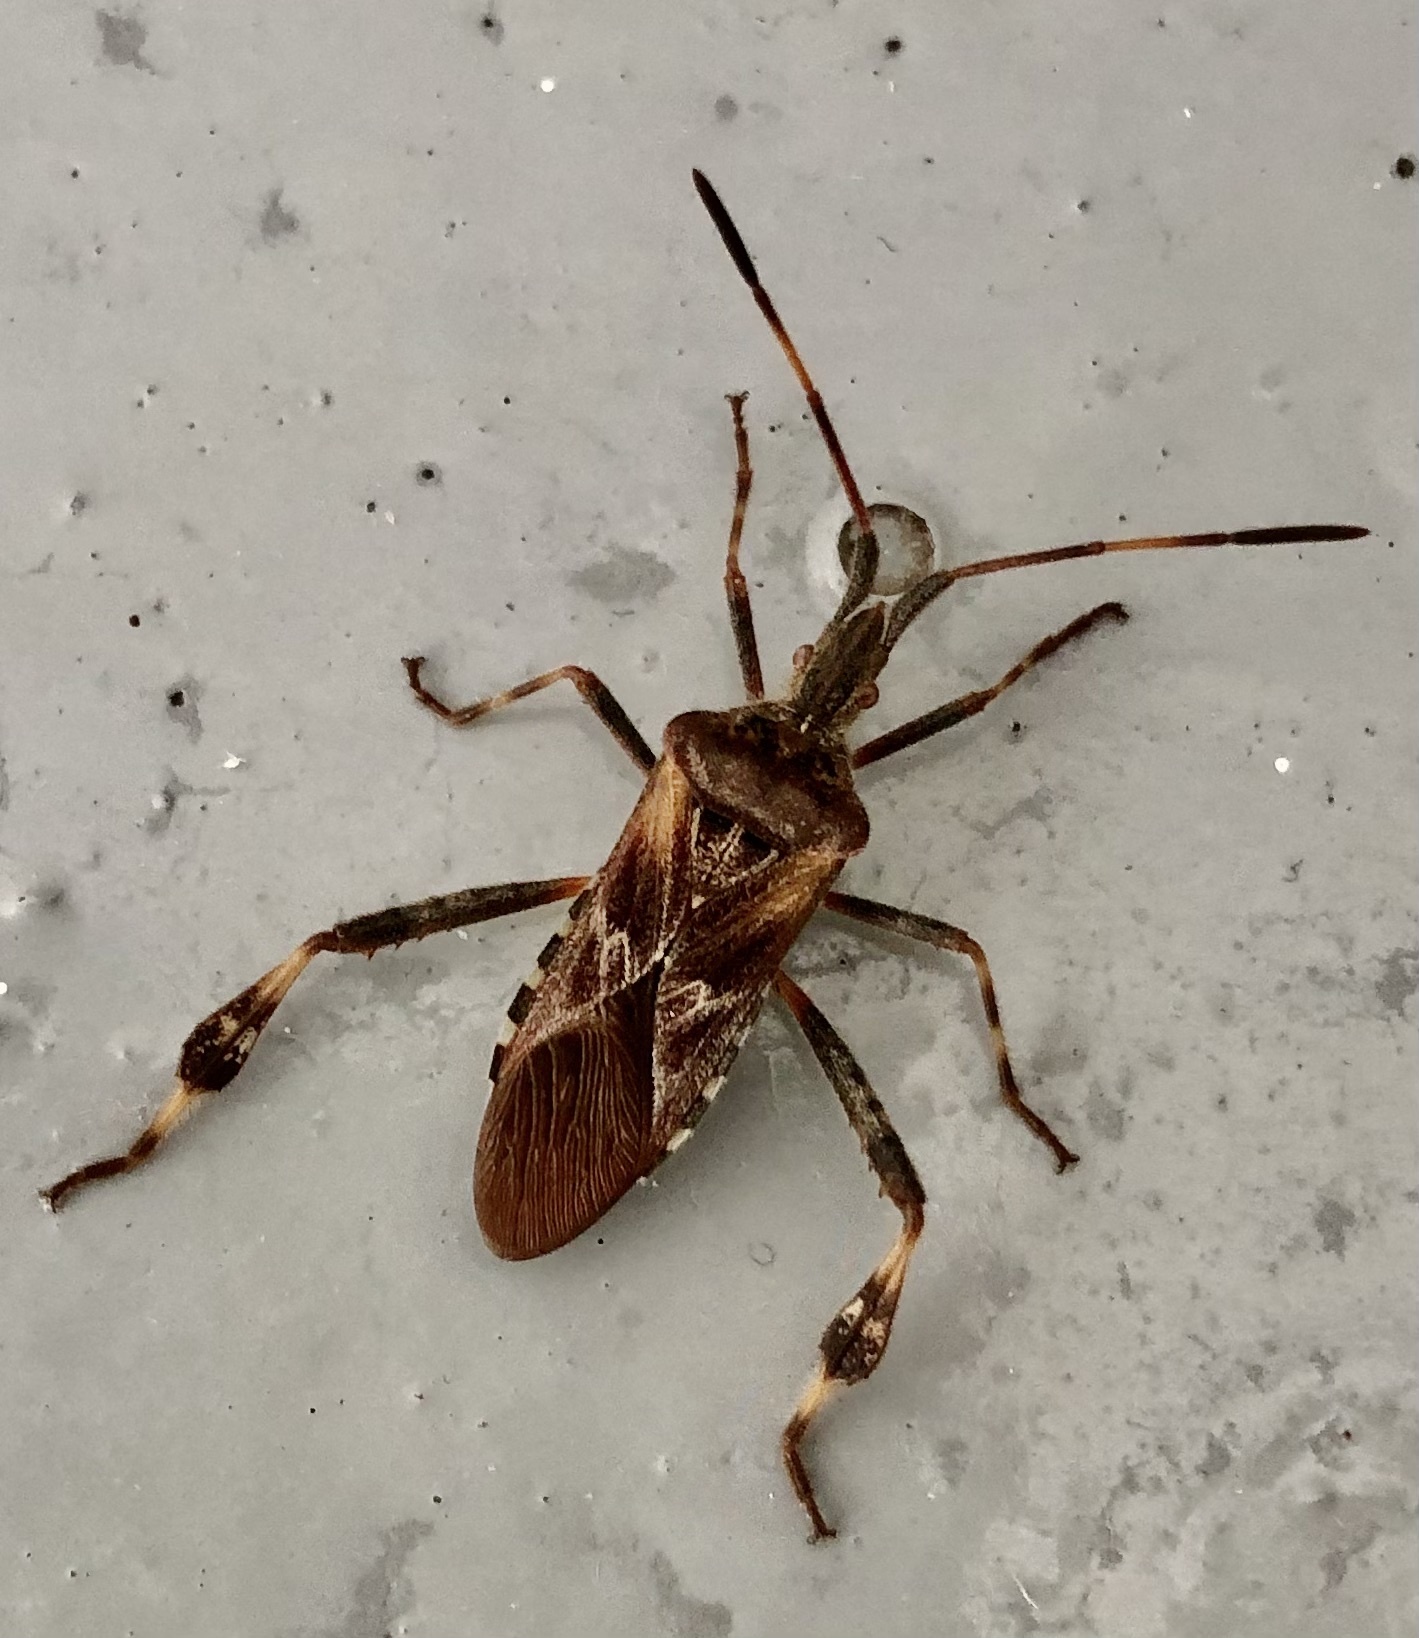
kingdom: Animalia
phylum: Arthropoda
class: Insecta
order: Hemiptera
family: Coreidae
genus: Leptoglossus
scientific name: Leptoglossus occidentalis
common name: Western conifer-seed bug
